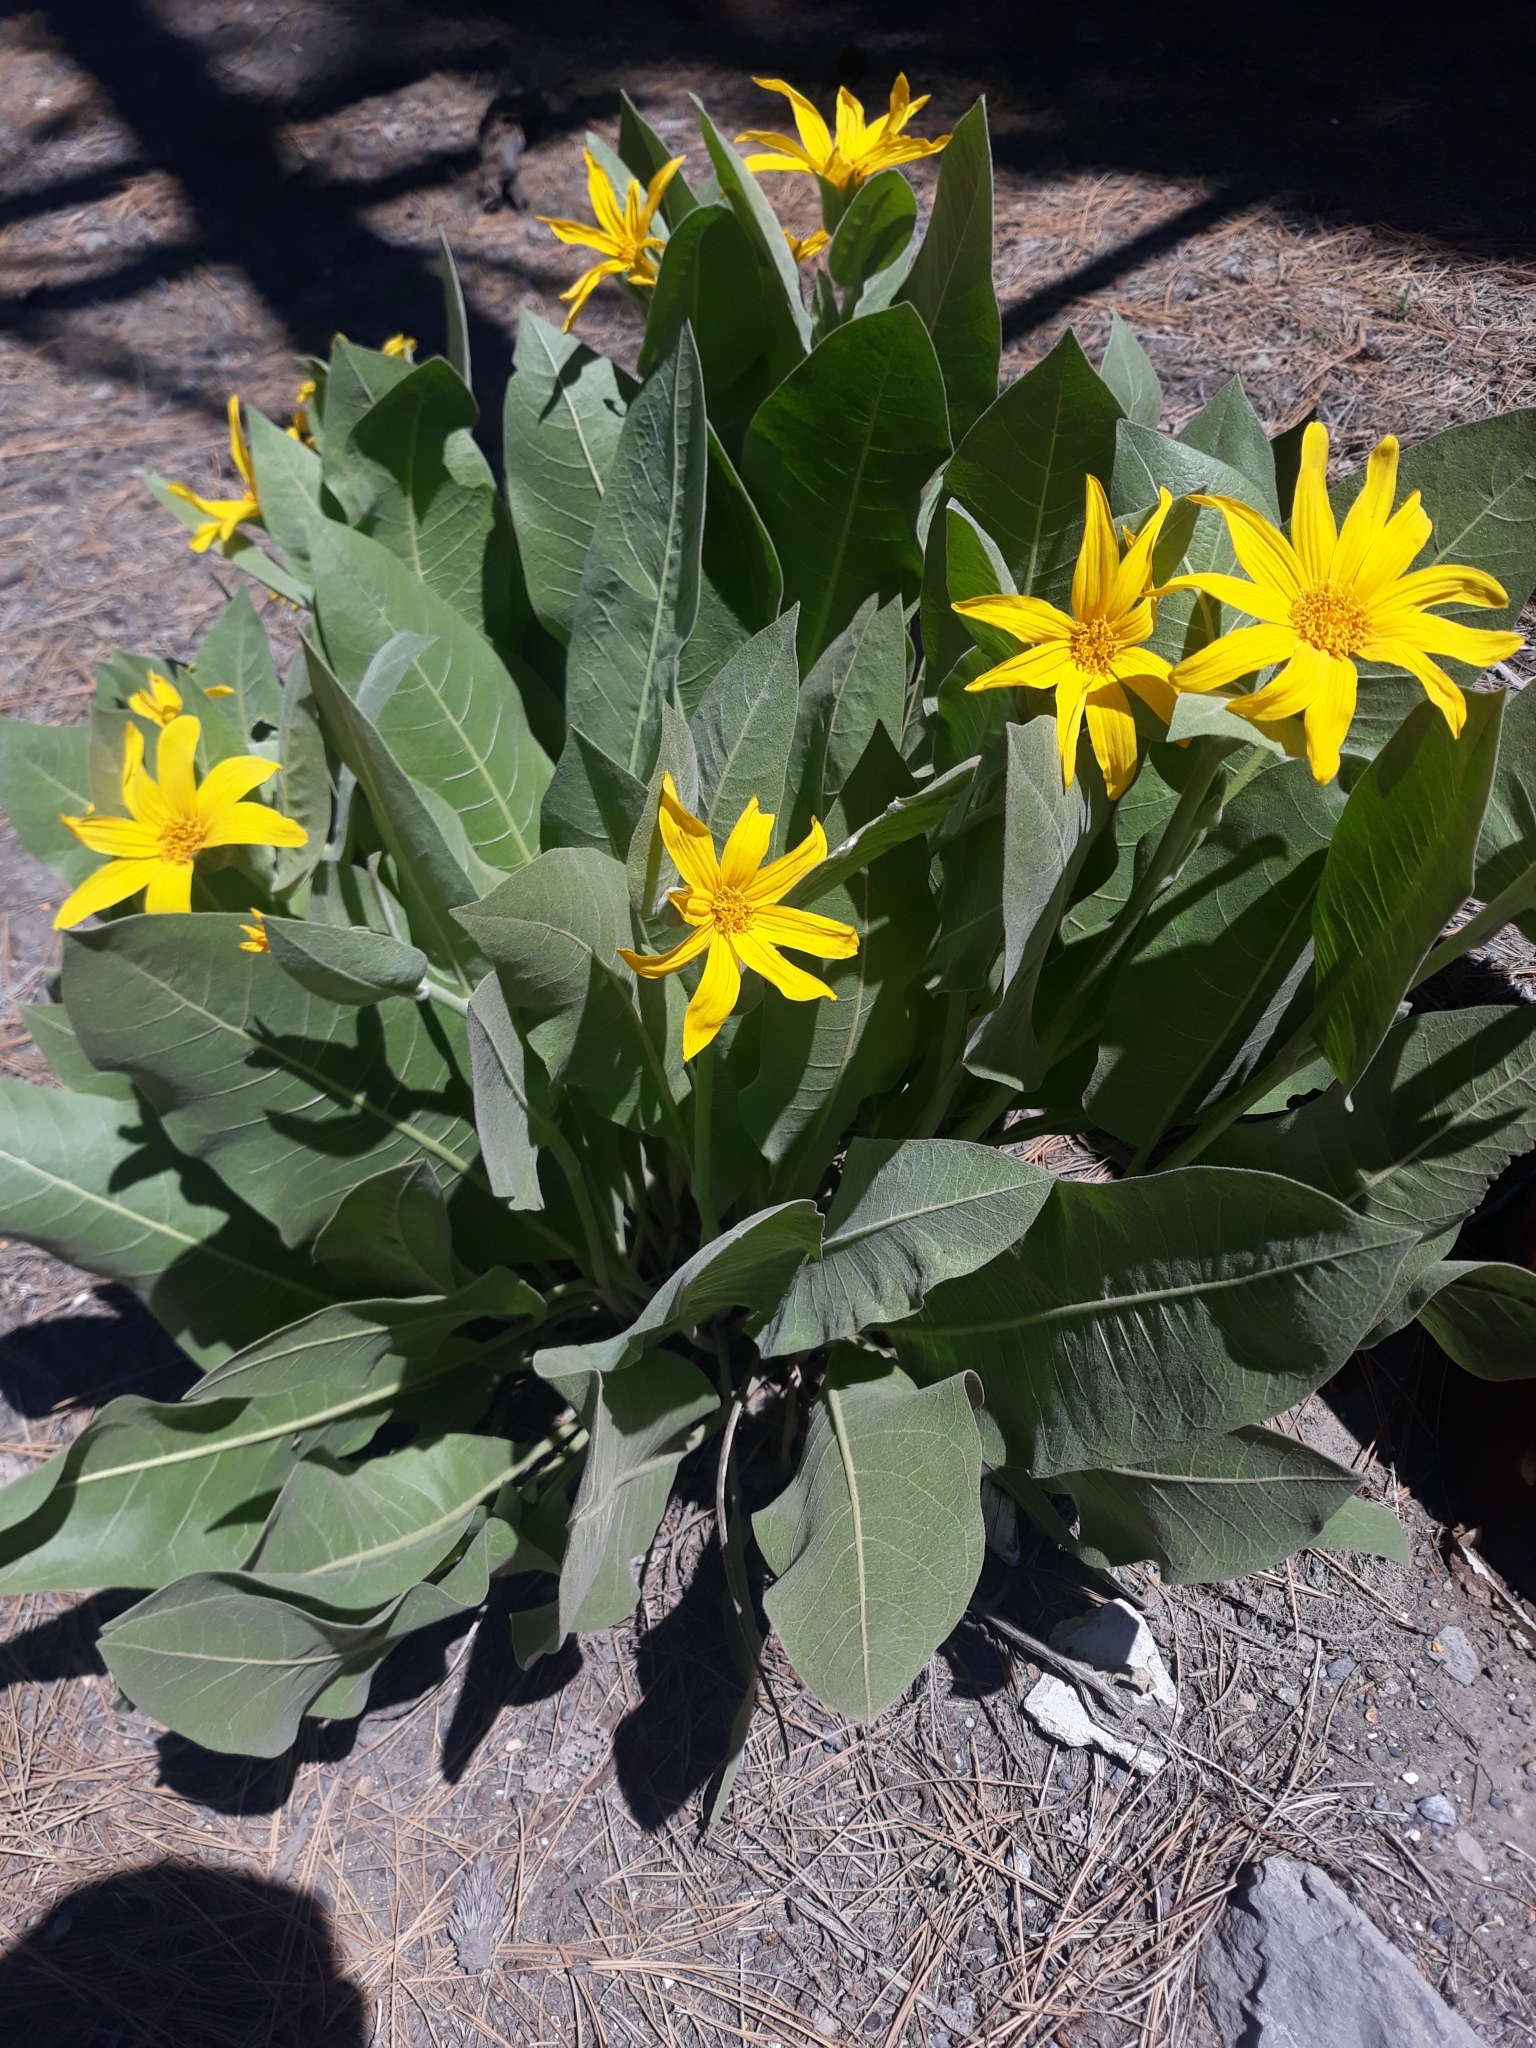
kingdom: Plantae
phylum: Tracheophyta
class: Magnoliopsida
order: Asterales
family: Asteraceae
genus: Wyethia
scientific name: Wyethia mollis
